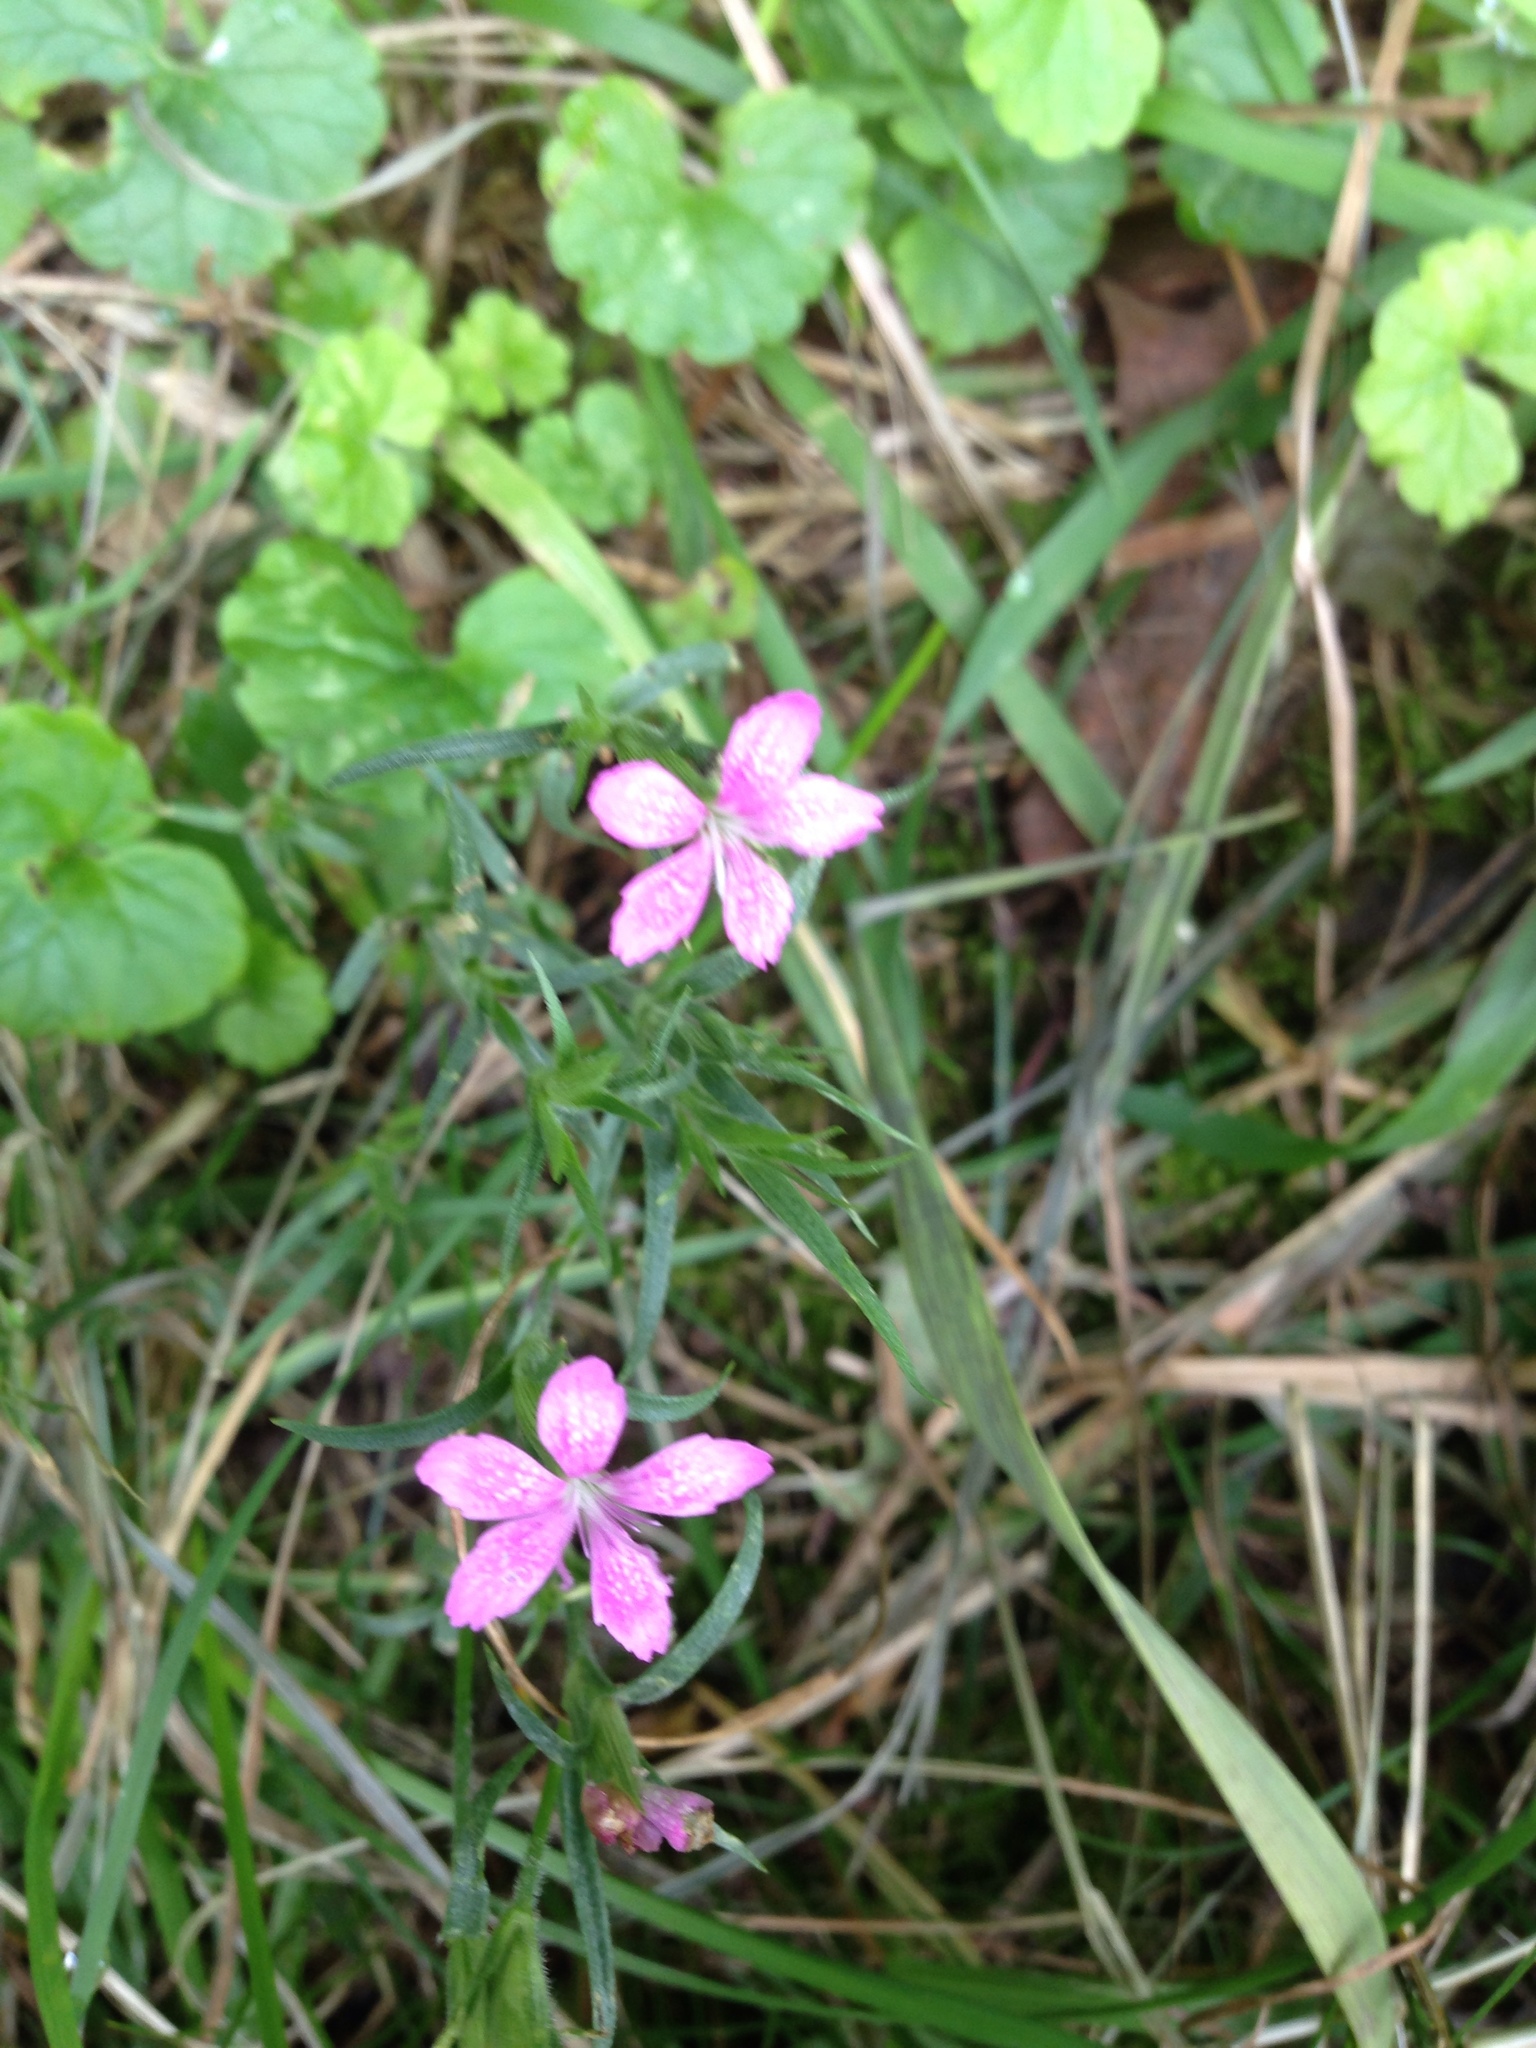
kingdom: Plantae
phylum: Tracheophyta
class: Magnoliopsida
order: Caryophyllales
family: Caryophyllaceae
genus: Dianthus
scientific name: Dianthus armeria
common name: Deptford pink
